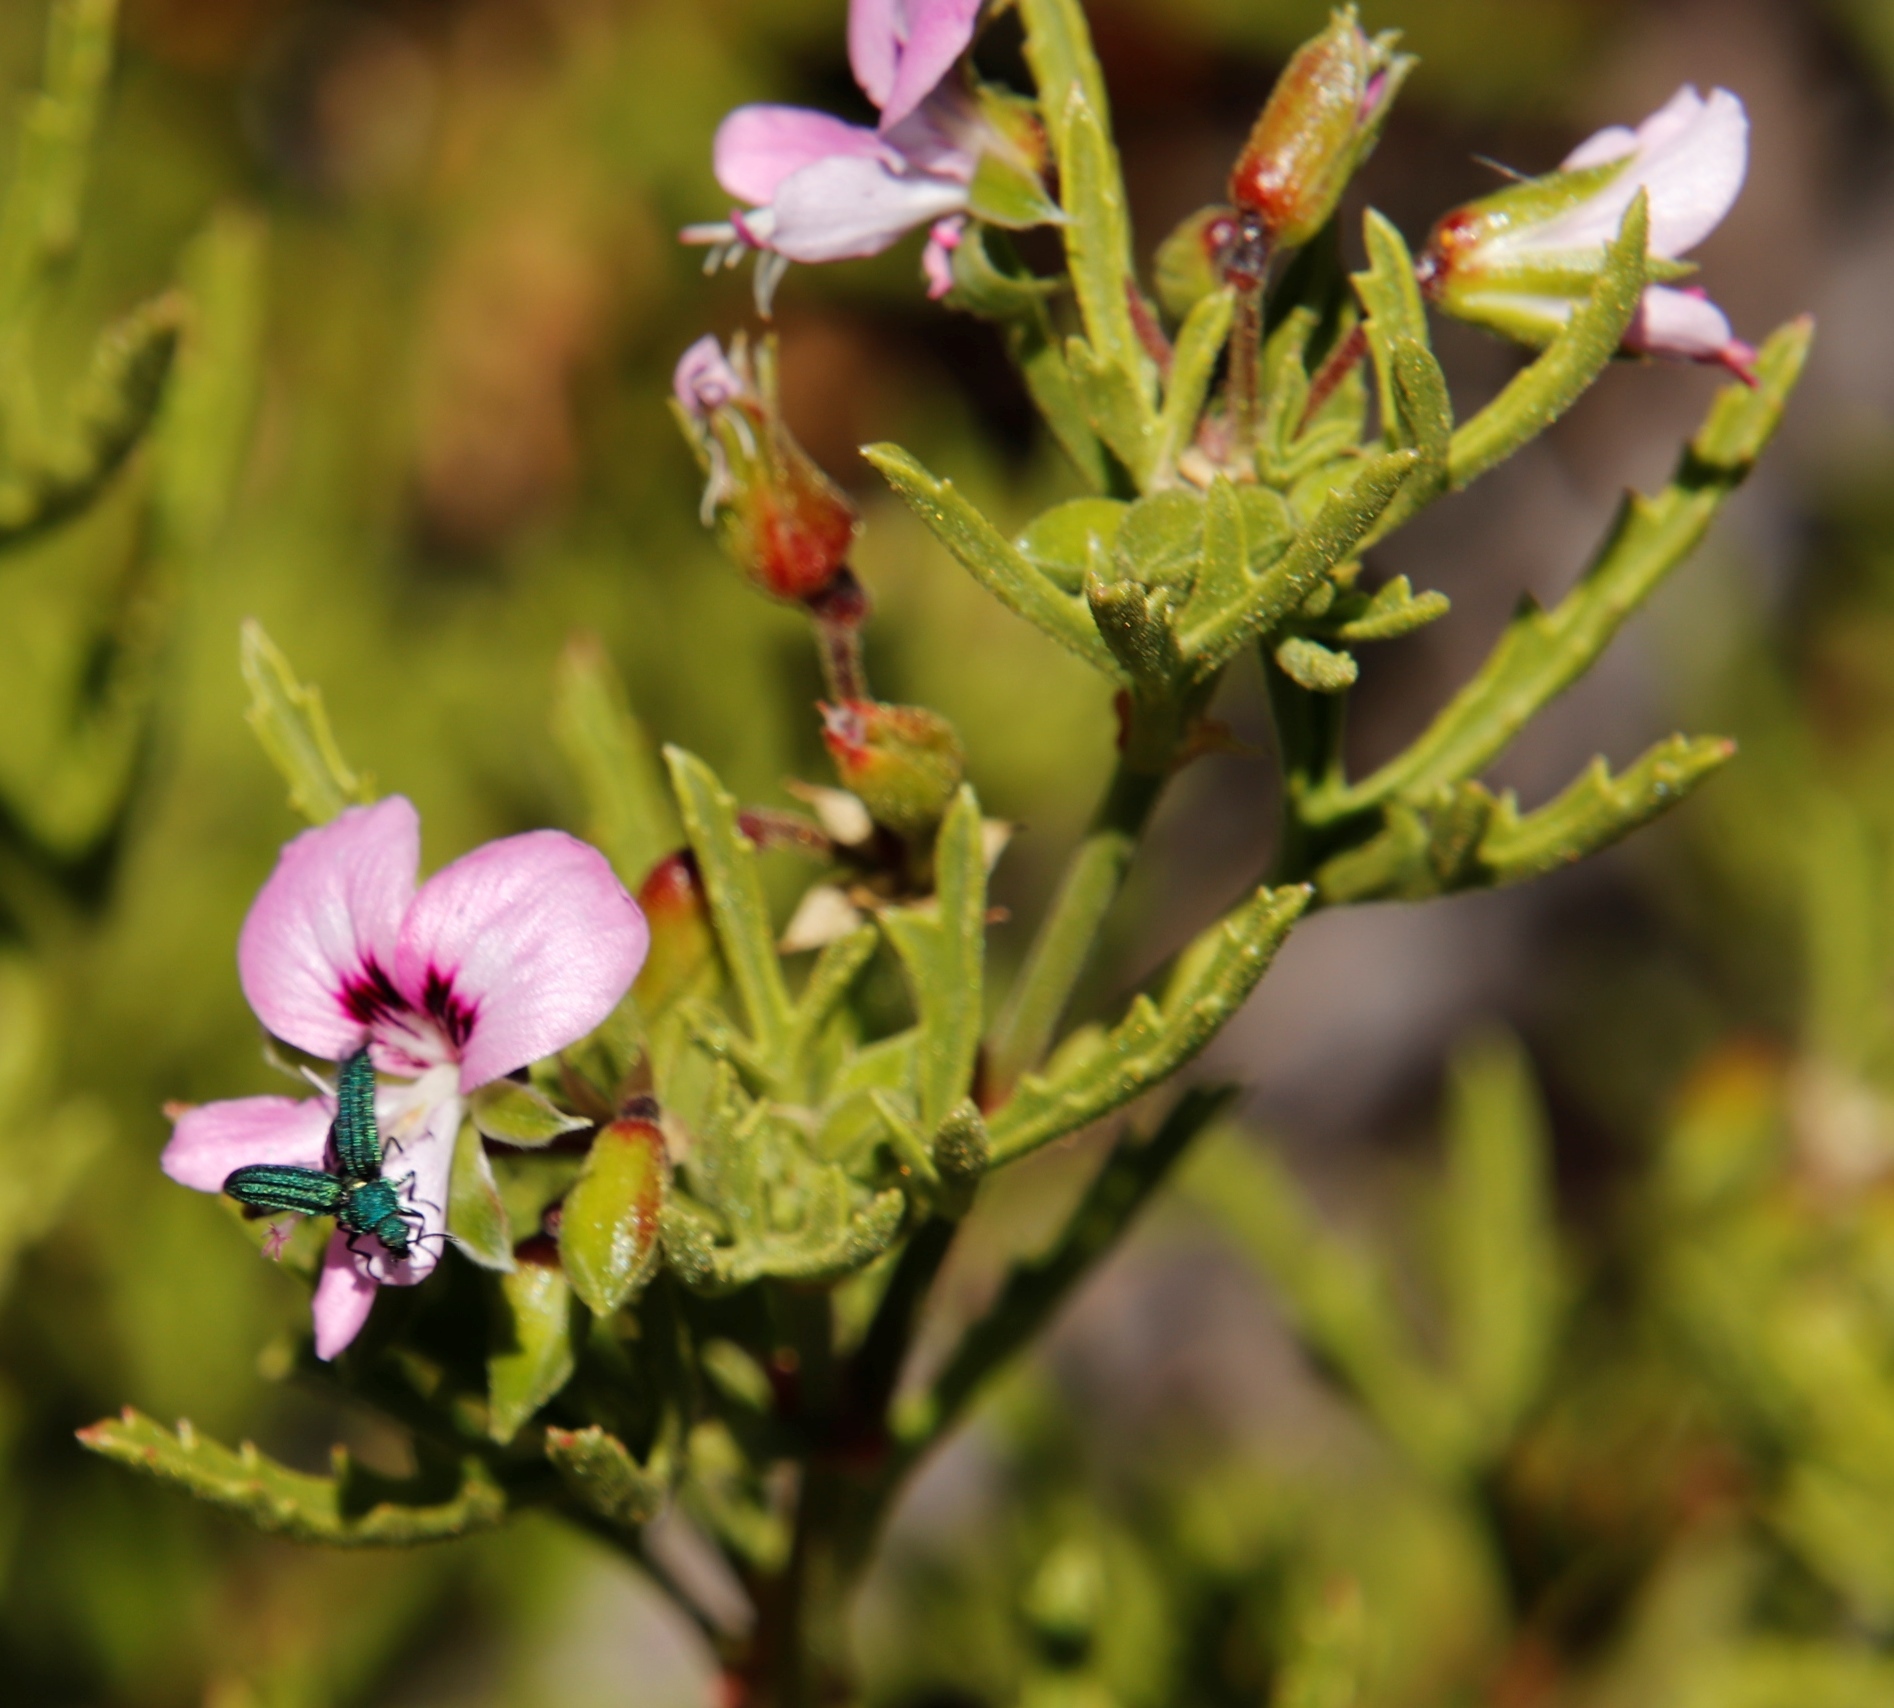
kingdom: Plantae
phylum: Tracheophyta
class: Magnoliopsida
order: Geraniales
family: Geraniaceae
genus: Pelargonium
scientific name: Pelargonium scabrum
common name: Apricot geranium
